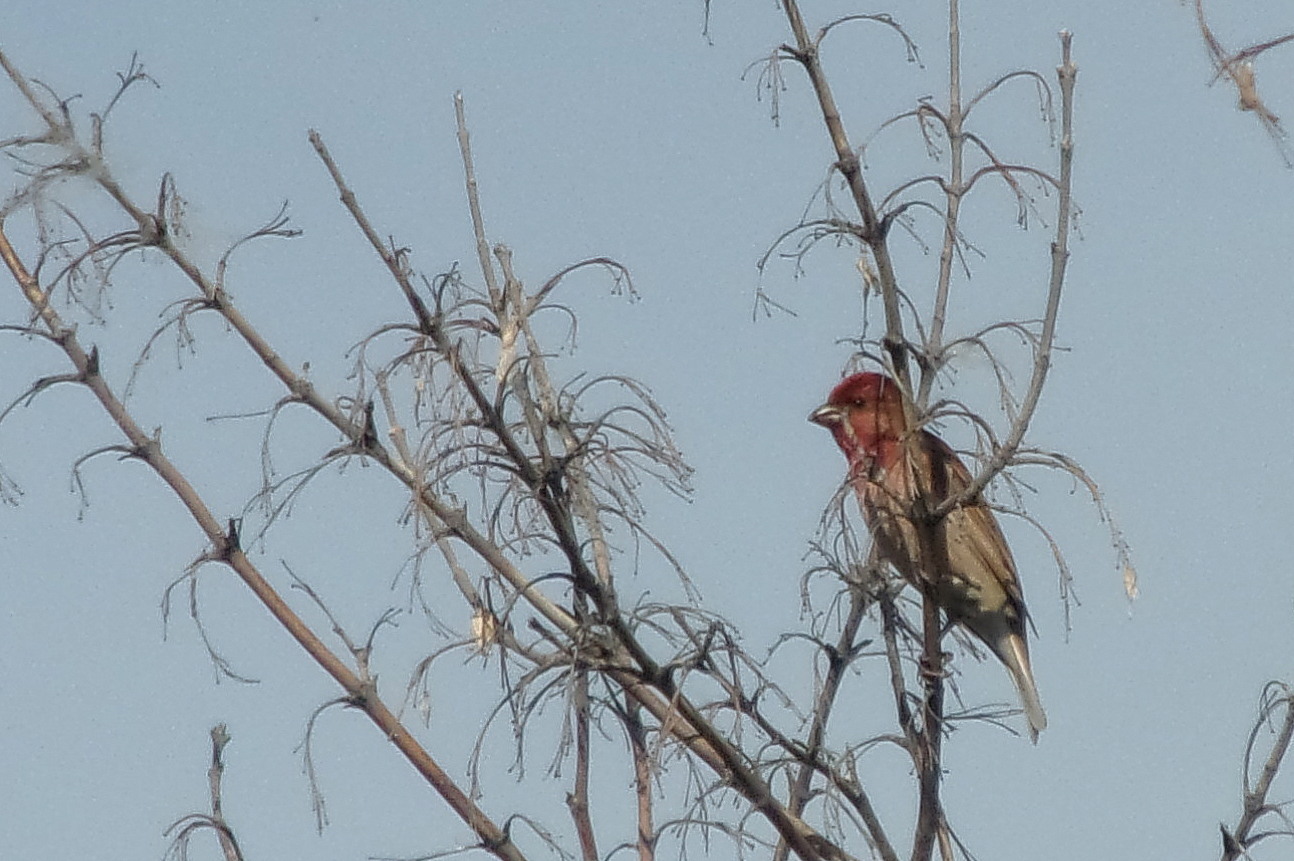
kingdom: Animalia
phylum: Chordata
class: Aves
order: Passeriformes
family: Fringillidae
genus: Carpodacus
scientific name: Carpodacus erythrinus
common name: Common rosefinch
